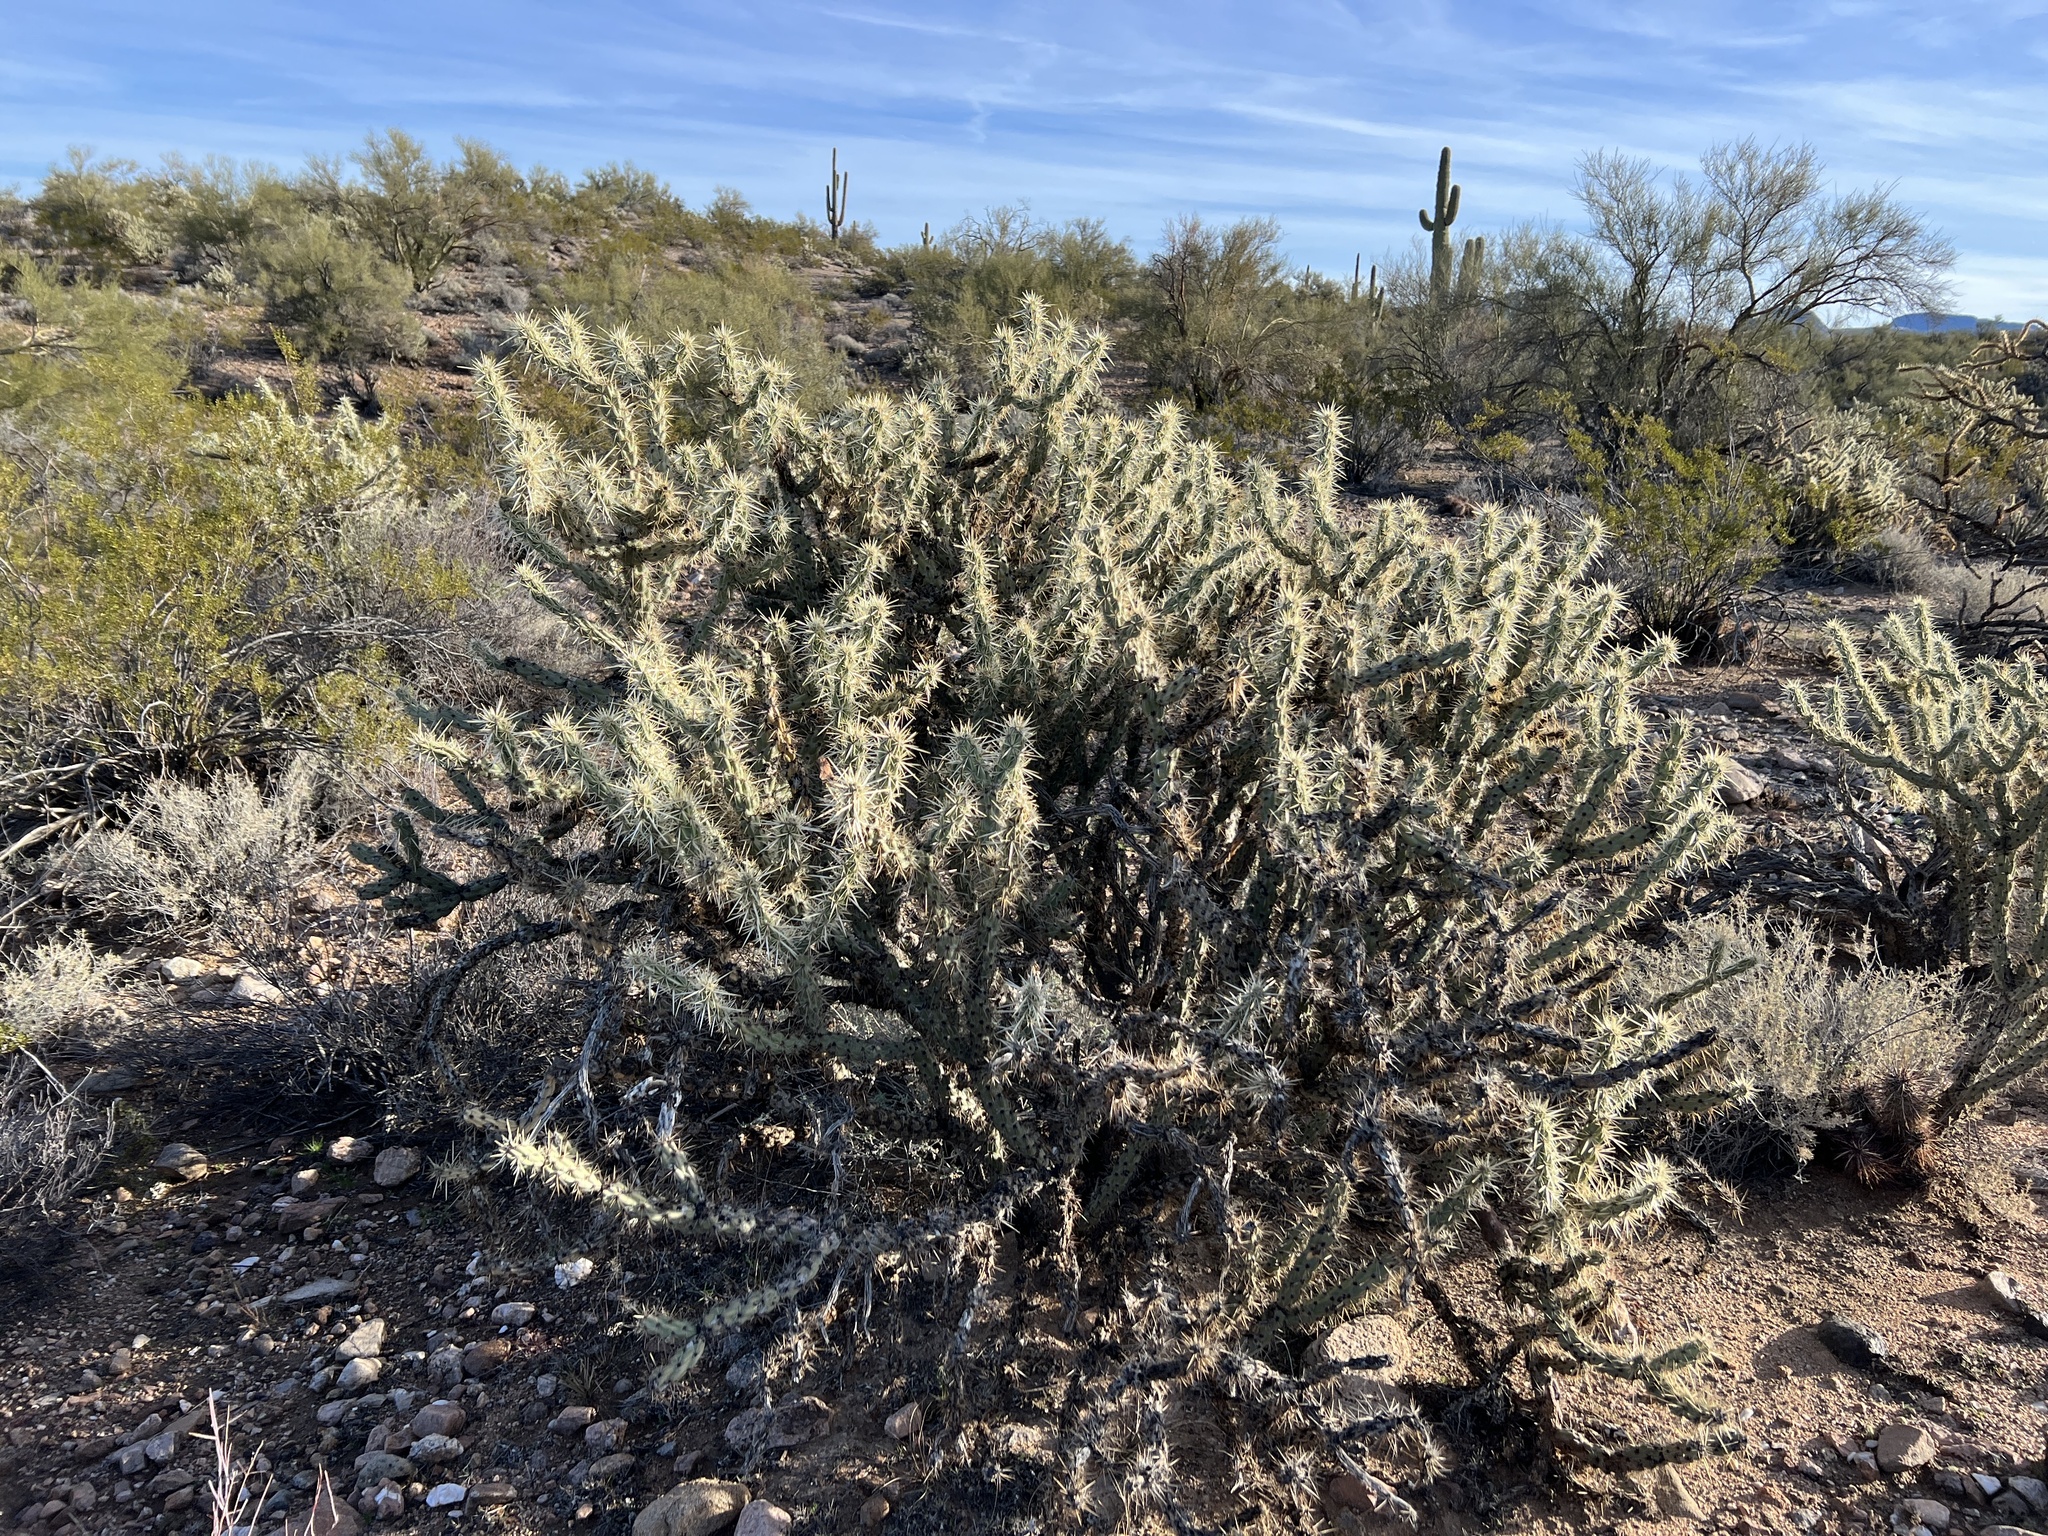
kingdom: Plantae
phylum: Tracheophyta
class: Magnoliopsida
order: Caryophyllales
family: Cactaceae
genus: Cylindropuntia
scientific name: Cylindropuntia acanthocarpa
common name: Buckhorn cholla
